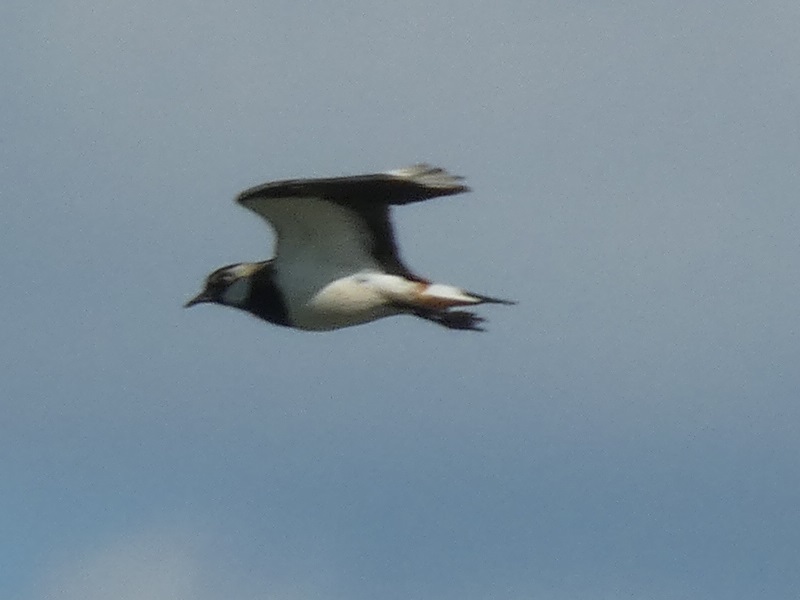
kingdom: Animalia
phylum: Chordata
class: Aves
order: Charadriiformes
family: Charadriidae
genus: Vanellus
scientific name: Vanellus vanellus
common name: Northern lapwing
